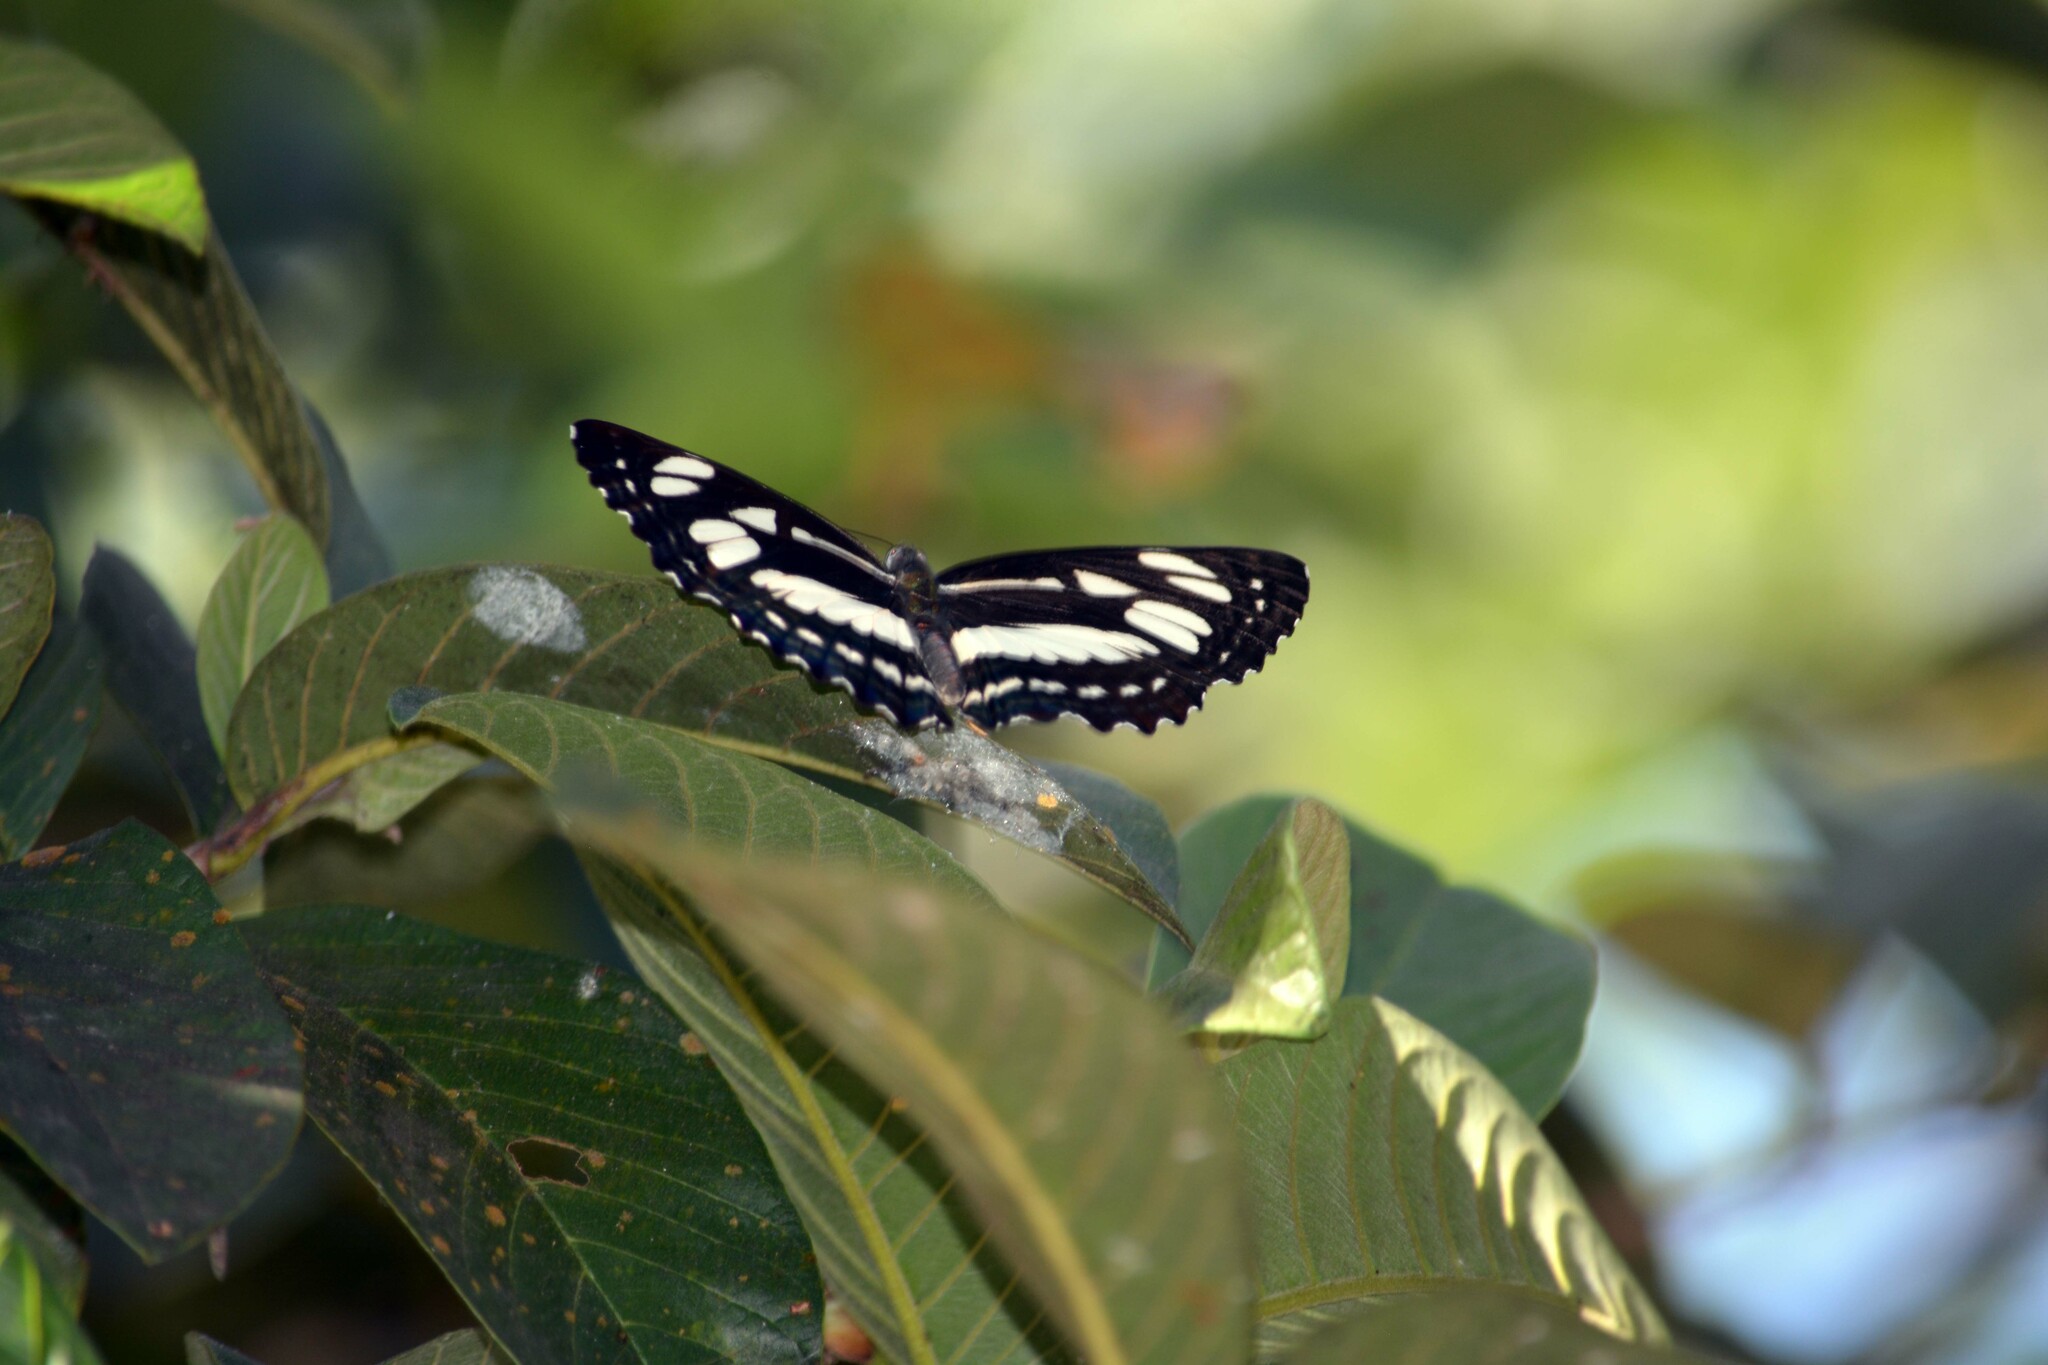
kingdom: Animalia
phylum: Arthropoda
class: Insecta
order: Lepidoptera
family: Nymphalidae
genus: Phaedyma
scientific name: Phaedyma columella
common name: Short banded sailer
